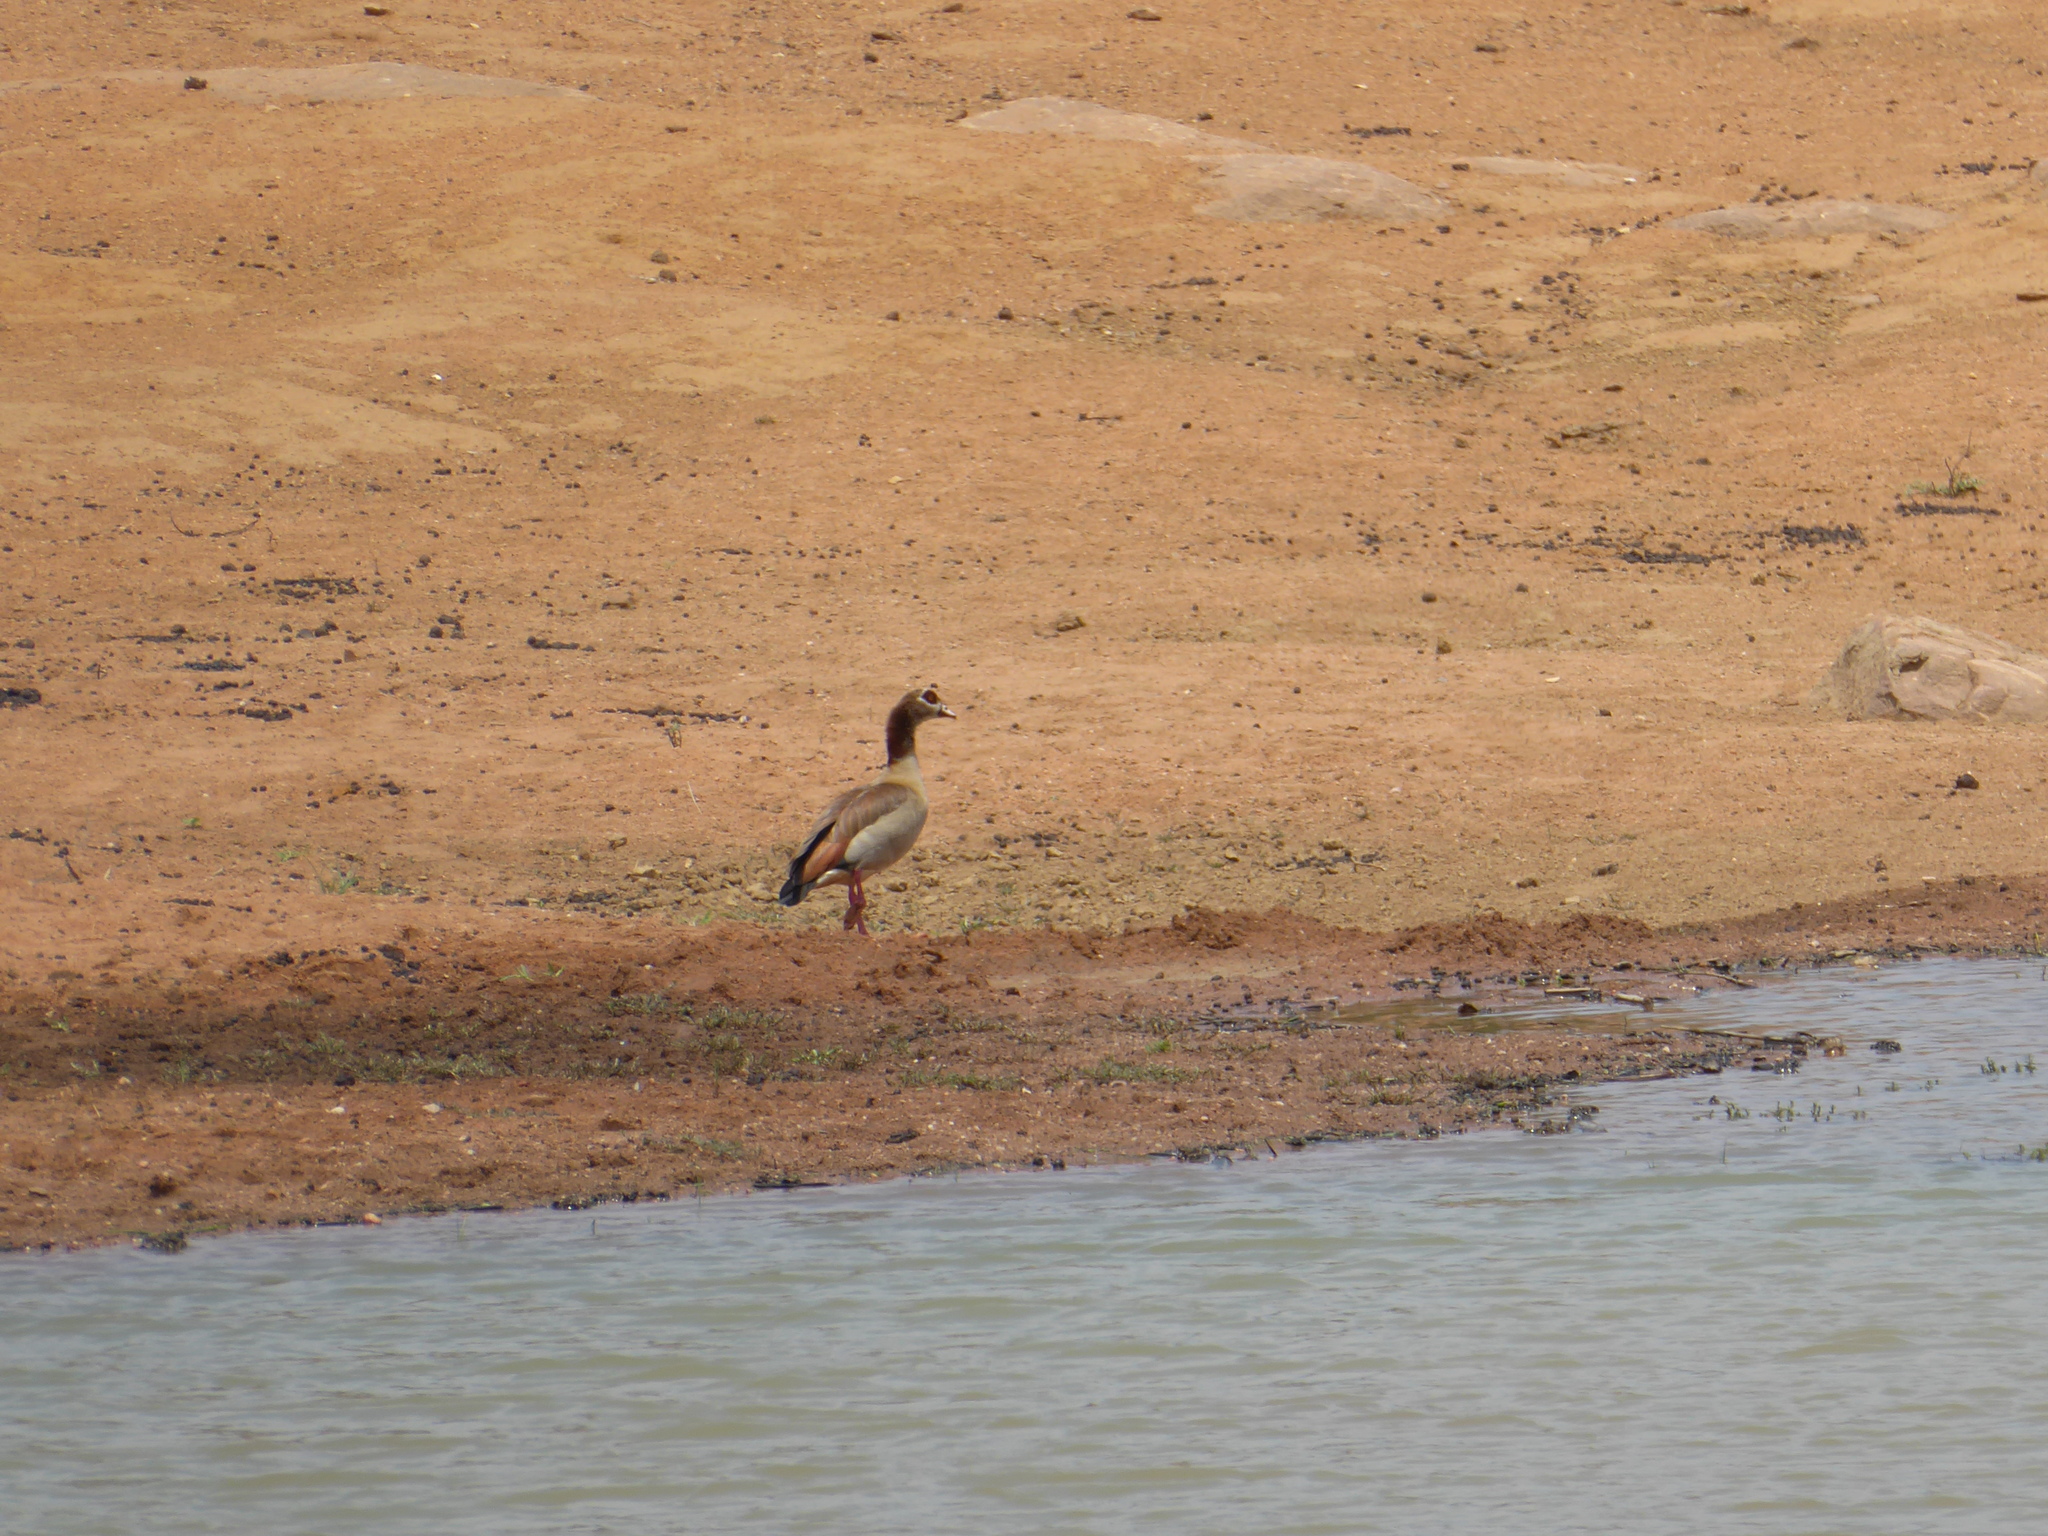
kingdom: Animalia
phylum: Chordata
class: Aves
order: Anseriformes
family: Anatidae
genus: Alopochen
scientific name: Alopochen aegyptiaca
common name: Egyptian goose
